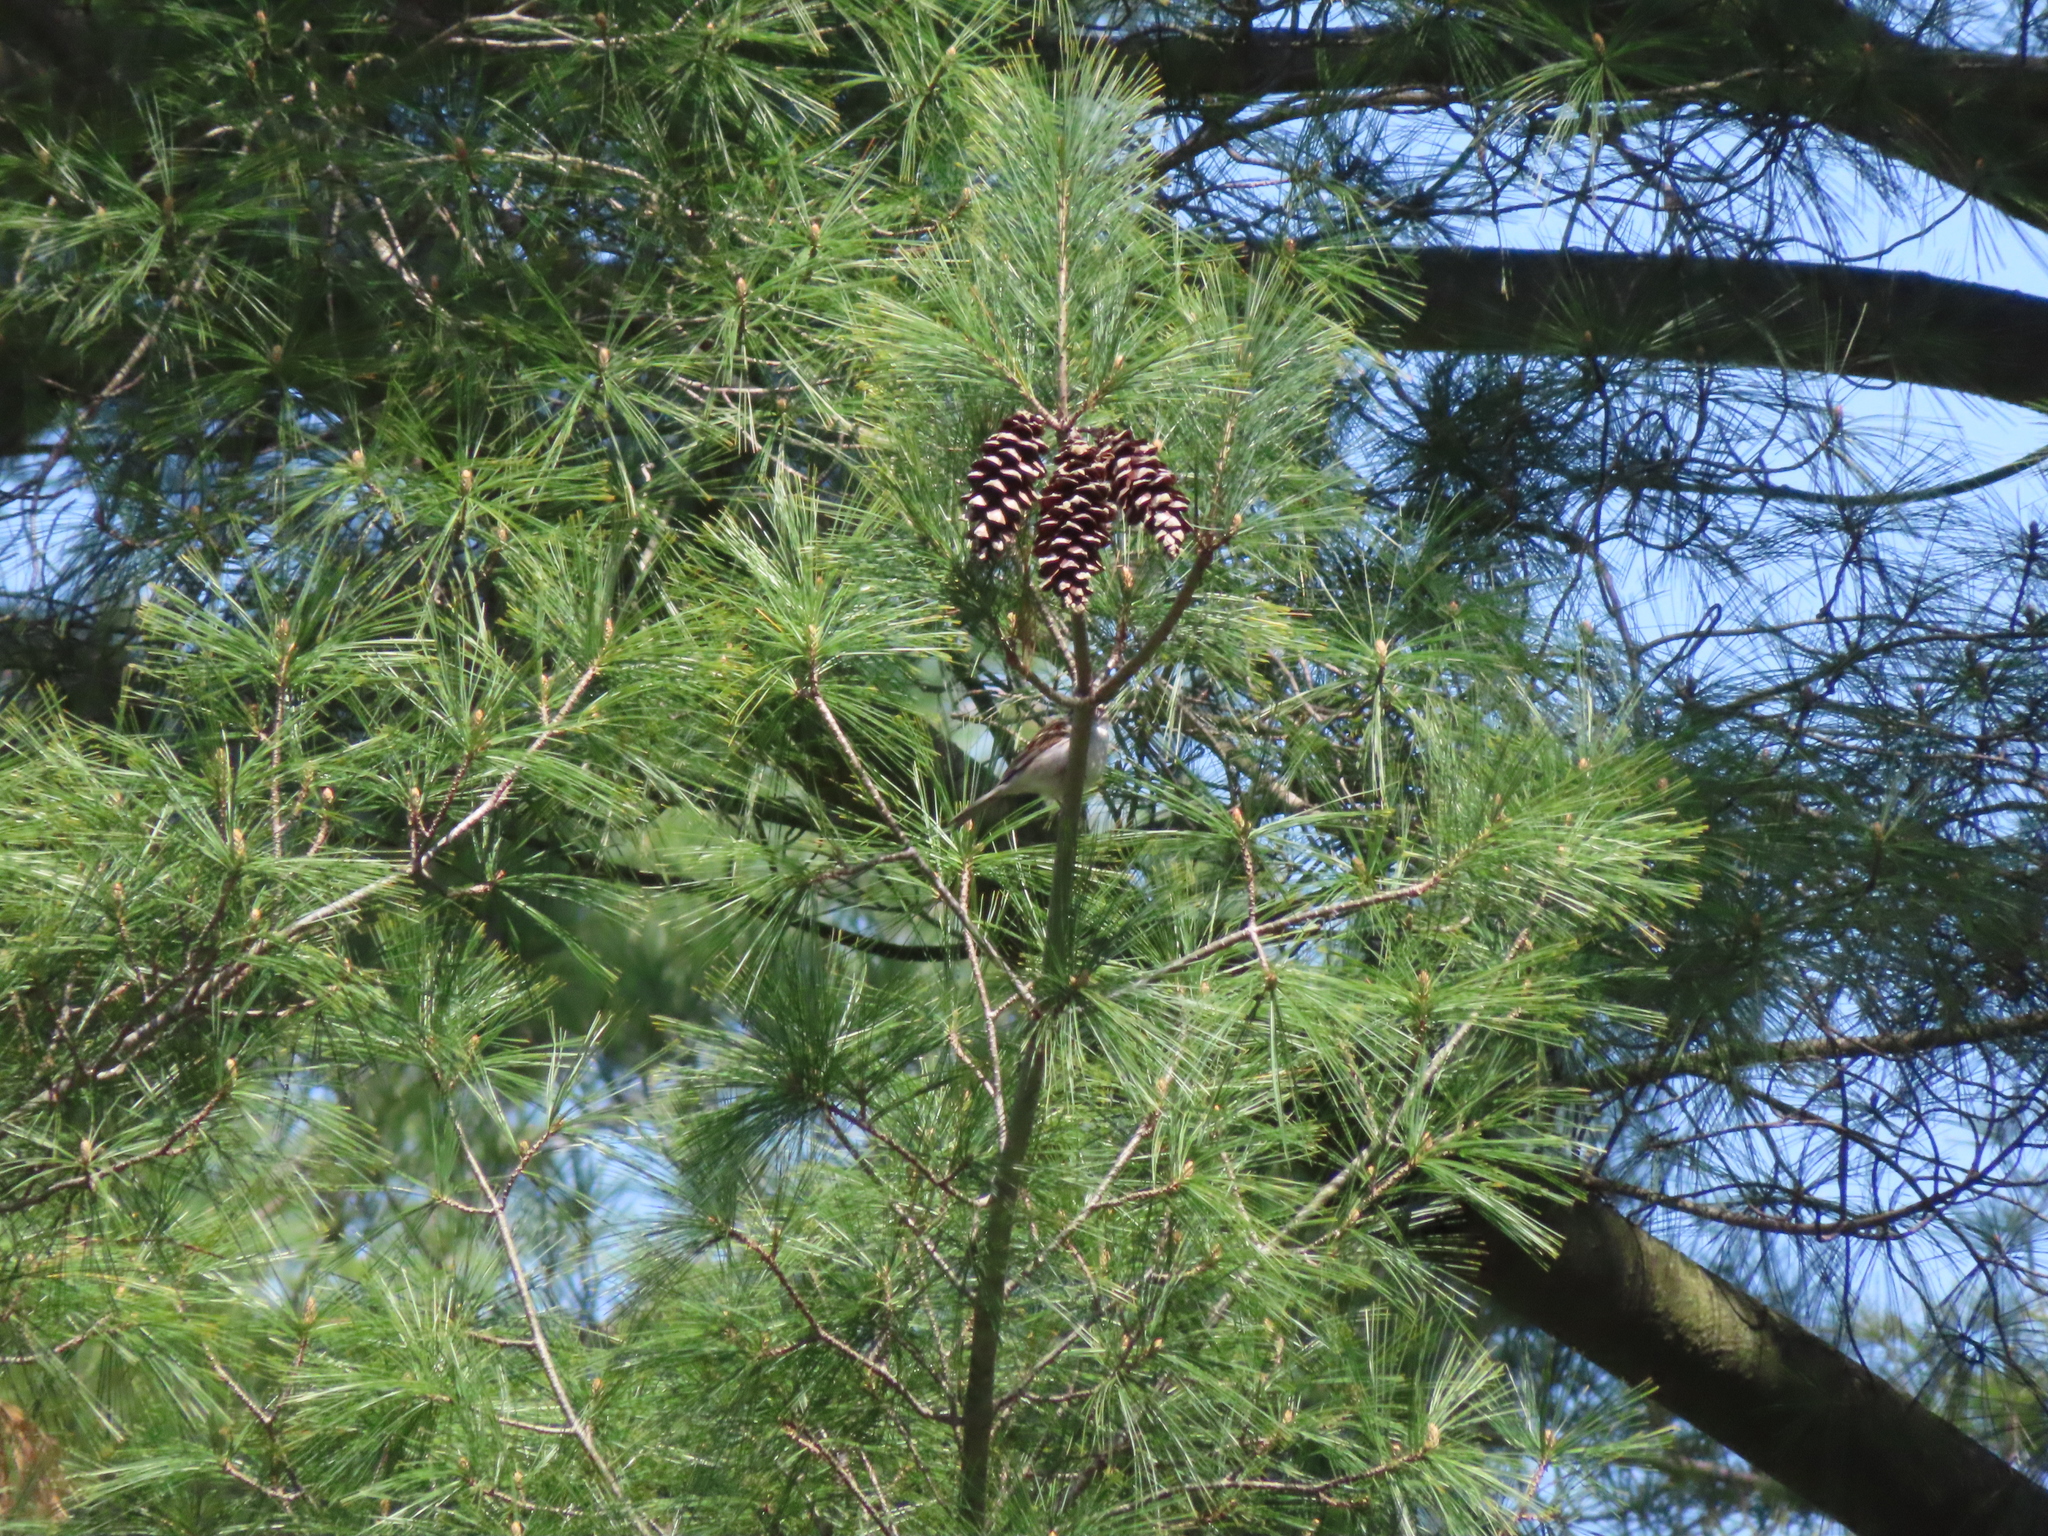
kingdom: Animalia
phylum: Chordata
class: Aves
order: Passeriformes
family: Passerellidae
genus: Spizella
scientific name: Spizella passerina
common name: Chipping sparrow
